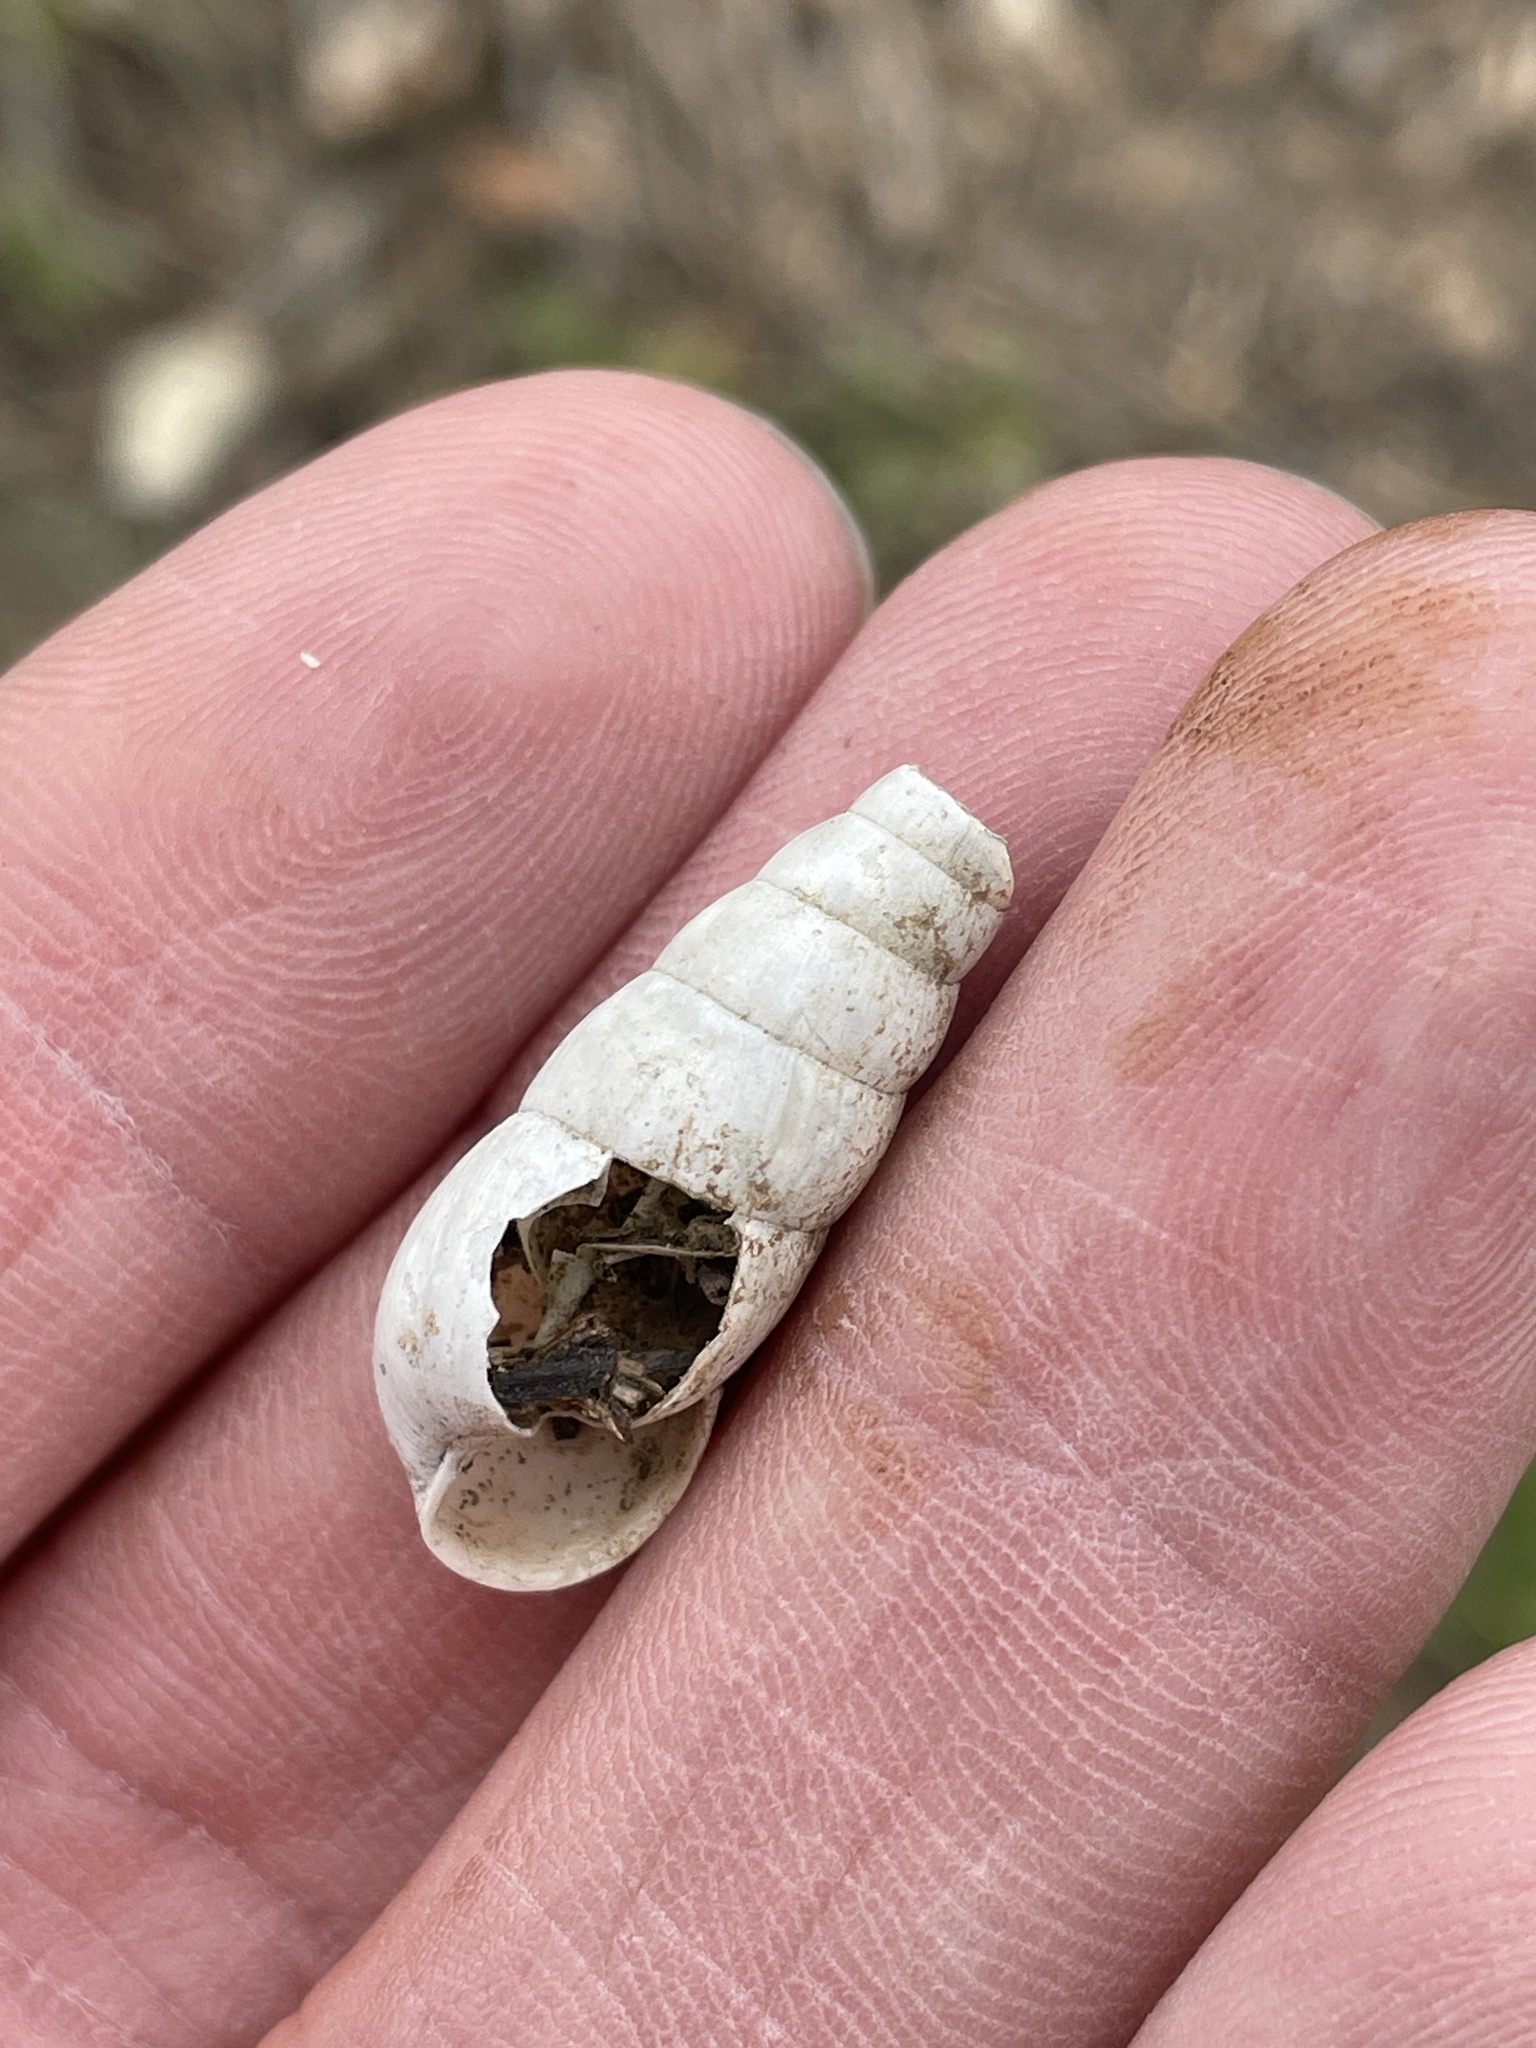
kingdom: Animalia
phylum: Mollusca
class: Gastropoda
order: Stylommatophora
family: Achatinidae
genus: Rumina
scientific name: Rumina decollata
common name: Decollate snail
